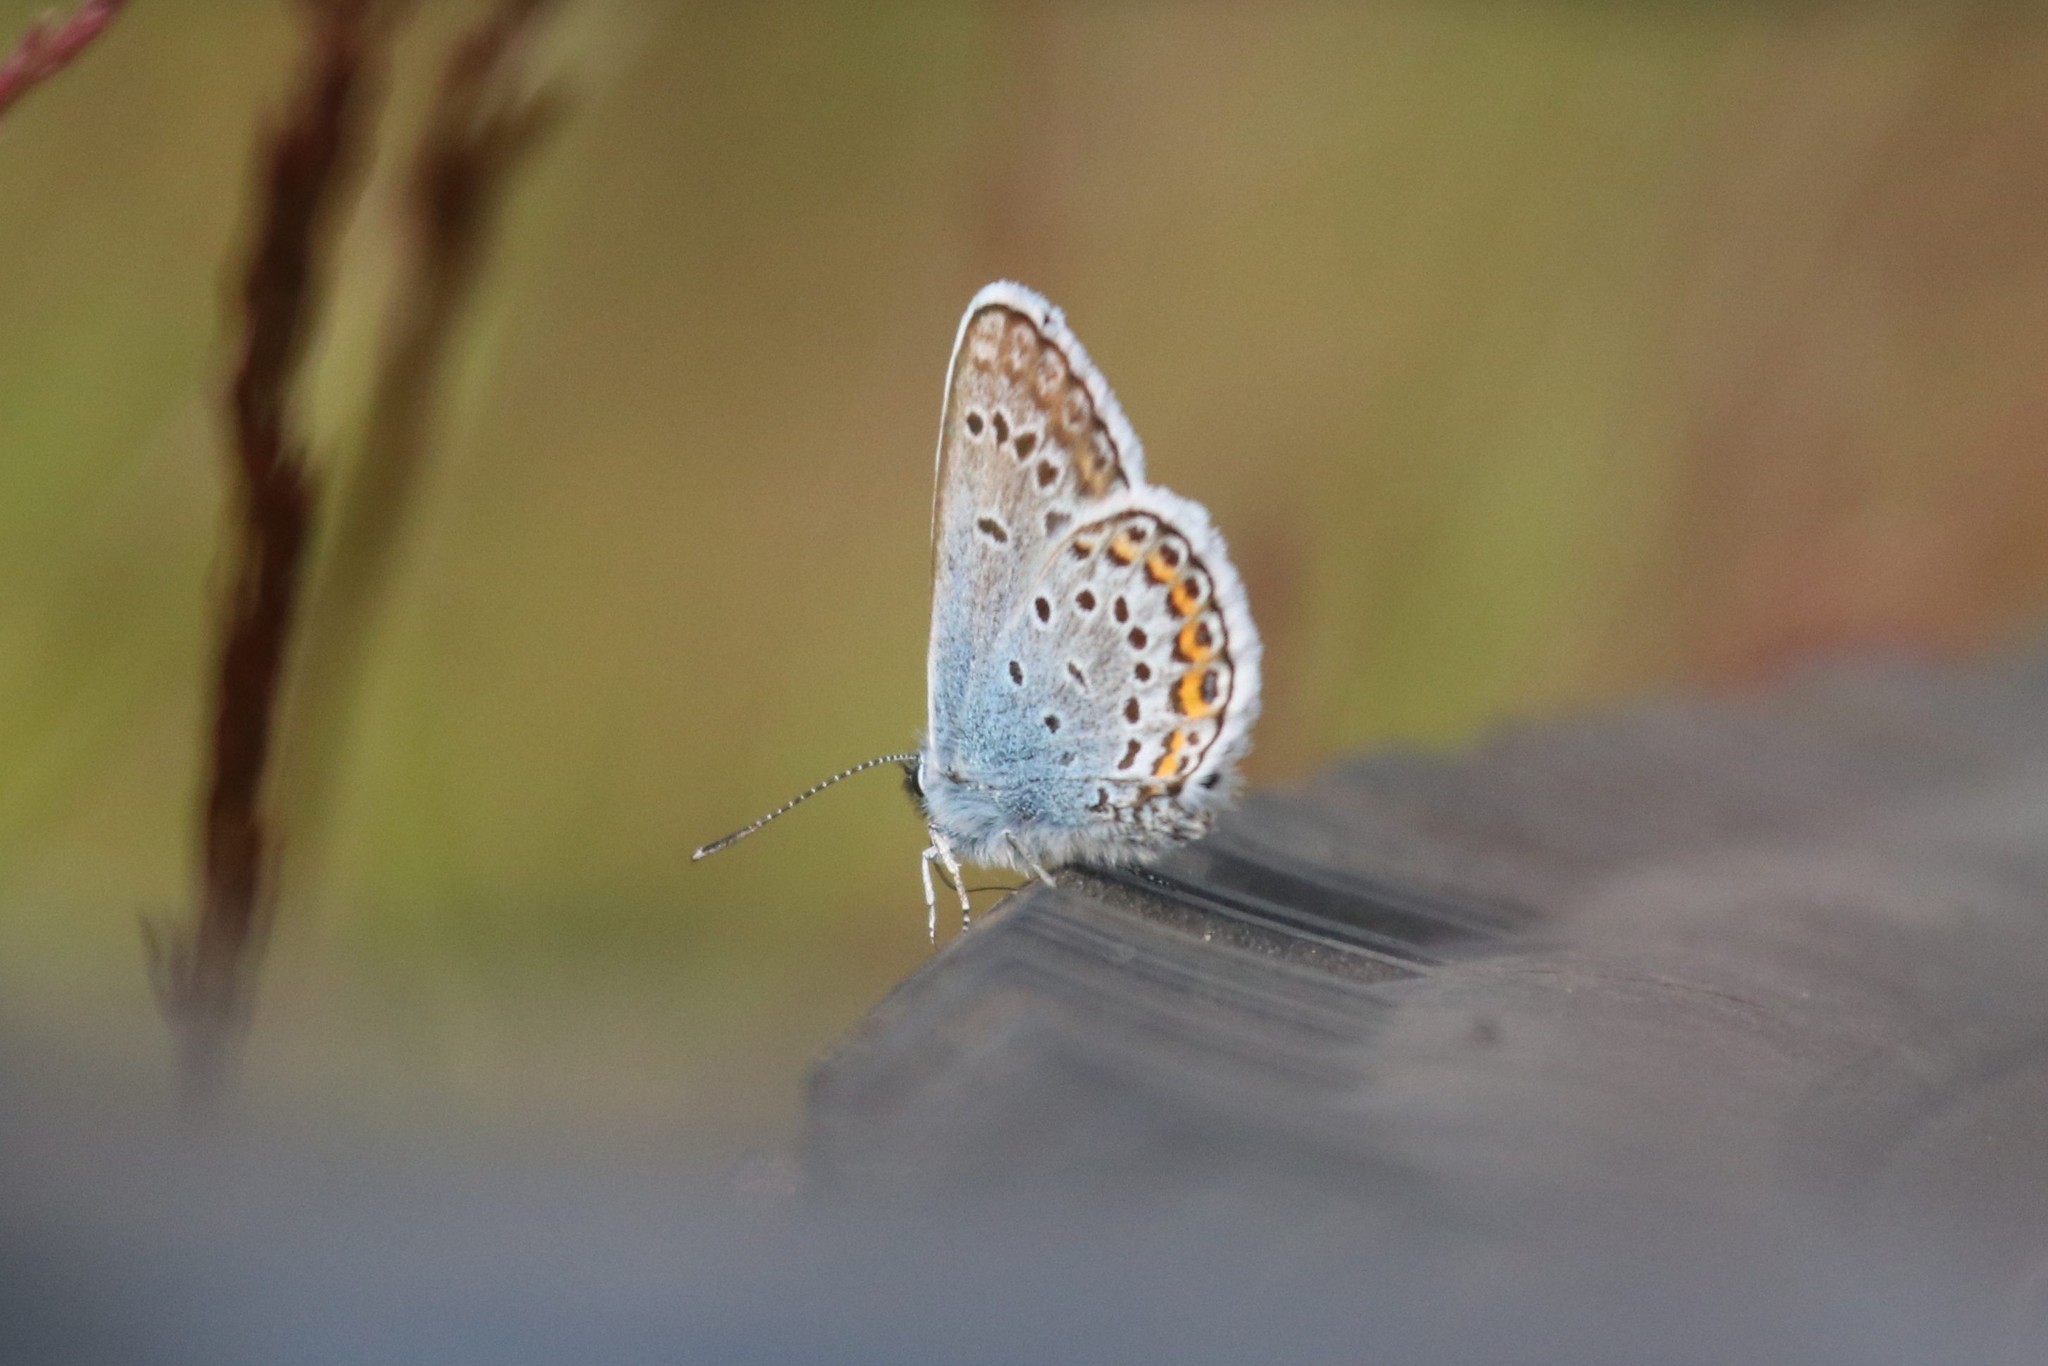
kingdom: Animalia
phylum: Arthropoda
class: Insecta
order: Lepidoptera
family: Lycaenidae
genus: Plebejus
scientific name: Plebejus argus
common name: Silver-studded blue
